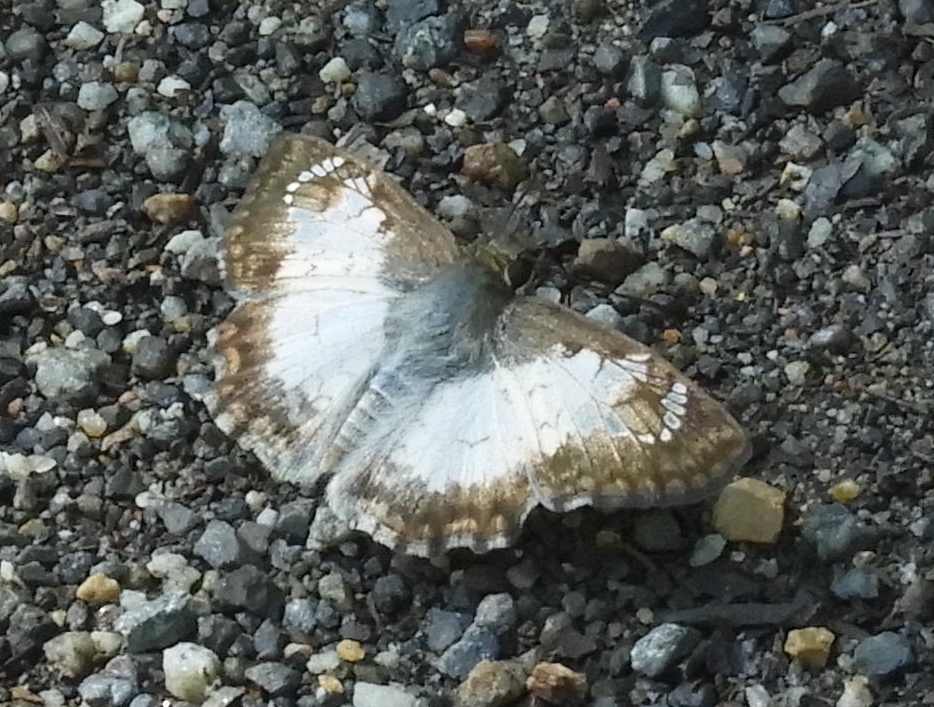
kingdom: Animalia
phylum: Arthropoda
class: Insecta
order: Lepidoptera
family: Hesperiidae
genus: Antigonus
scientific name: Antigonus emorsa
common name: White spurwing
